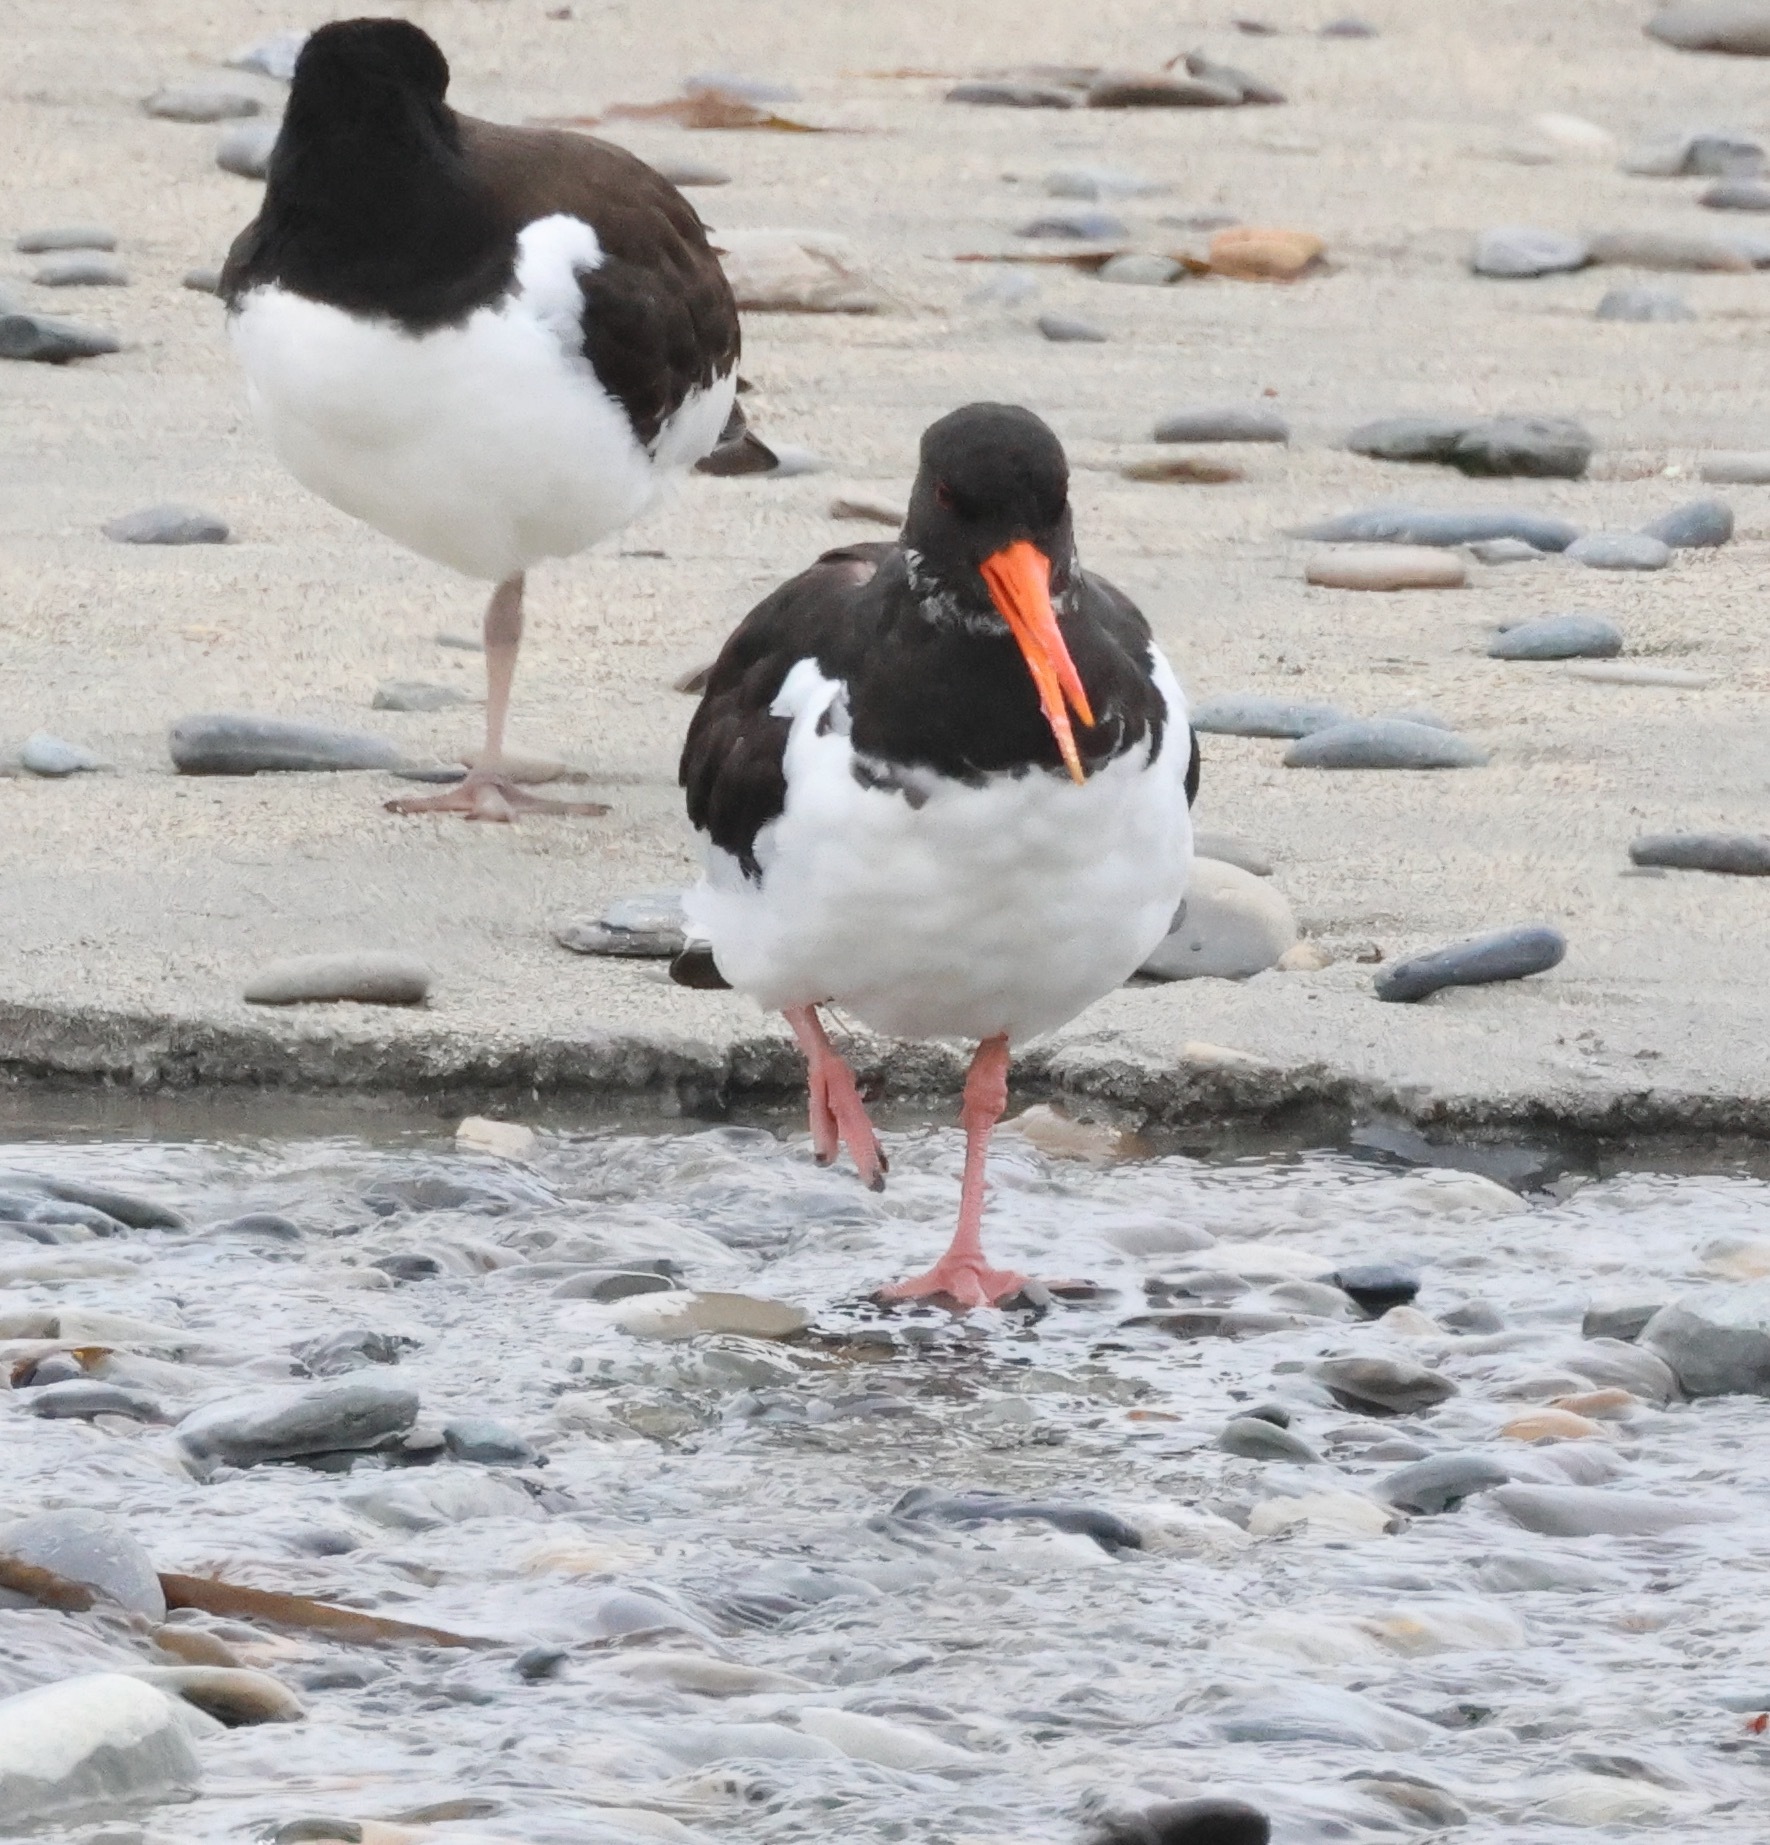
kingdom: Animalia
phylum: Chordata
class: Aves
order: Charadriiformes
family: Haematopodidae
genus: Haematopus
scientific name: Haematopus ostralegus
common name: Eurasian oystercatcher
